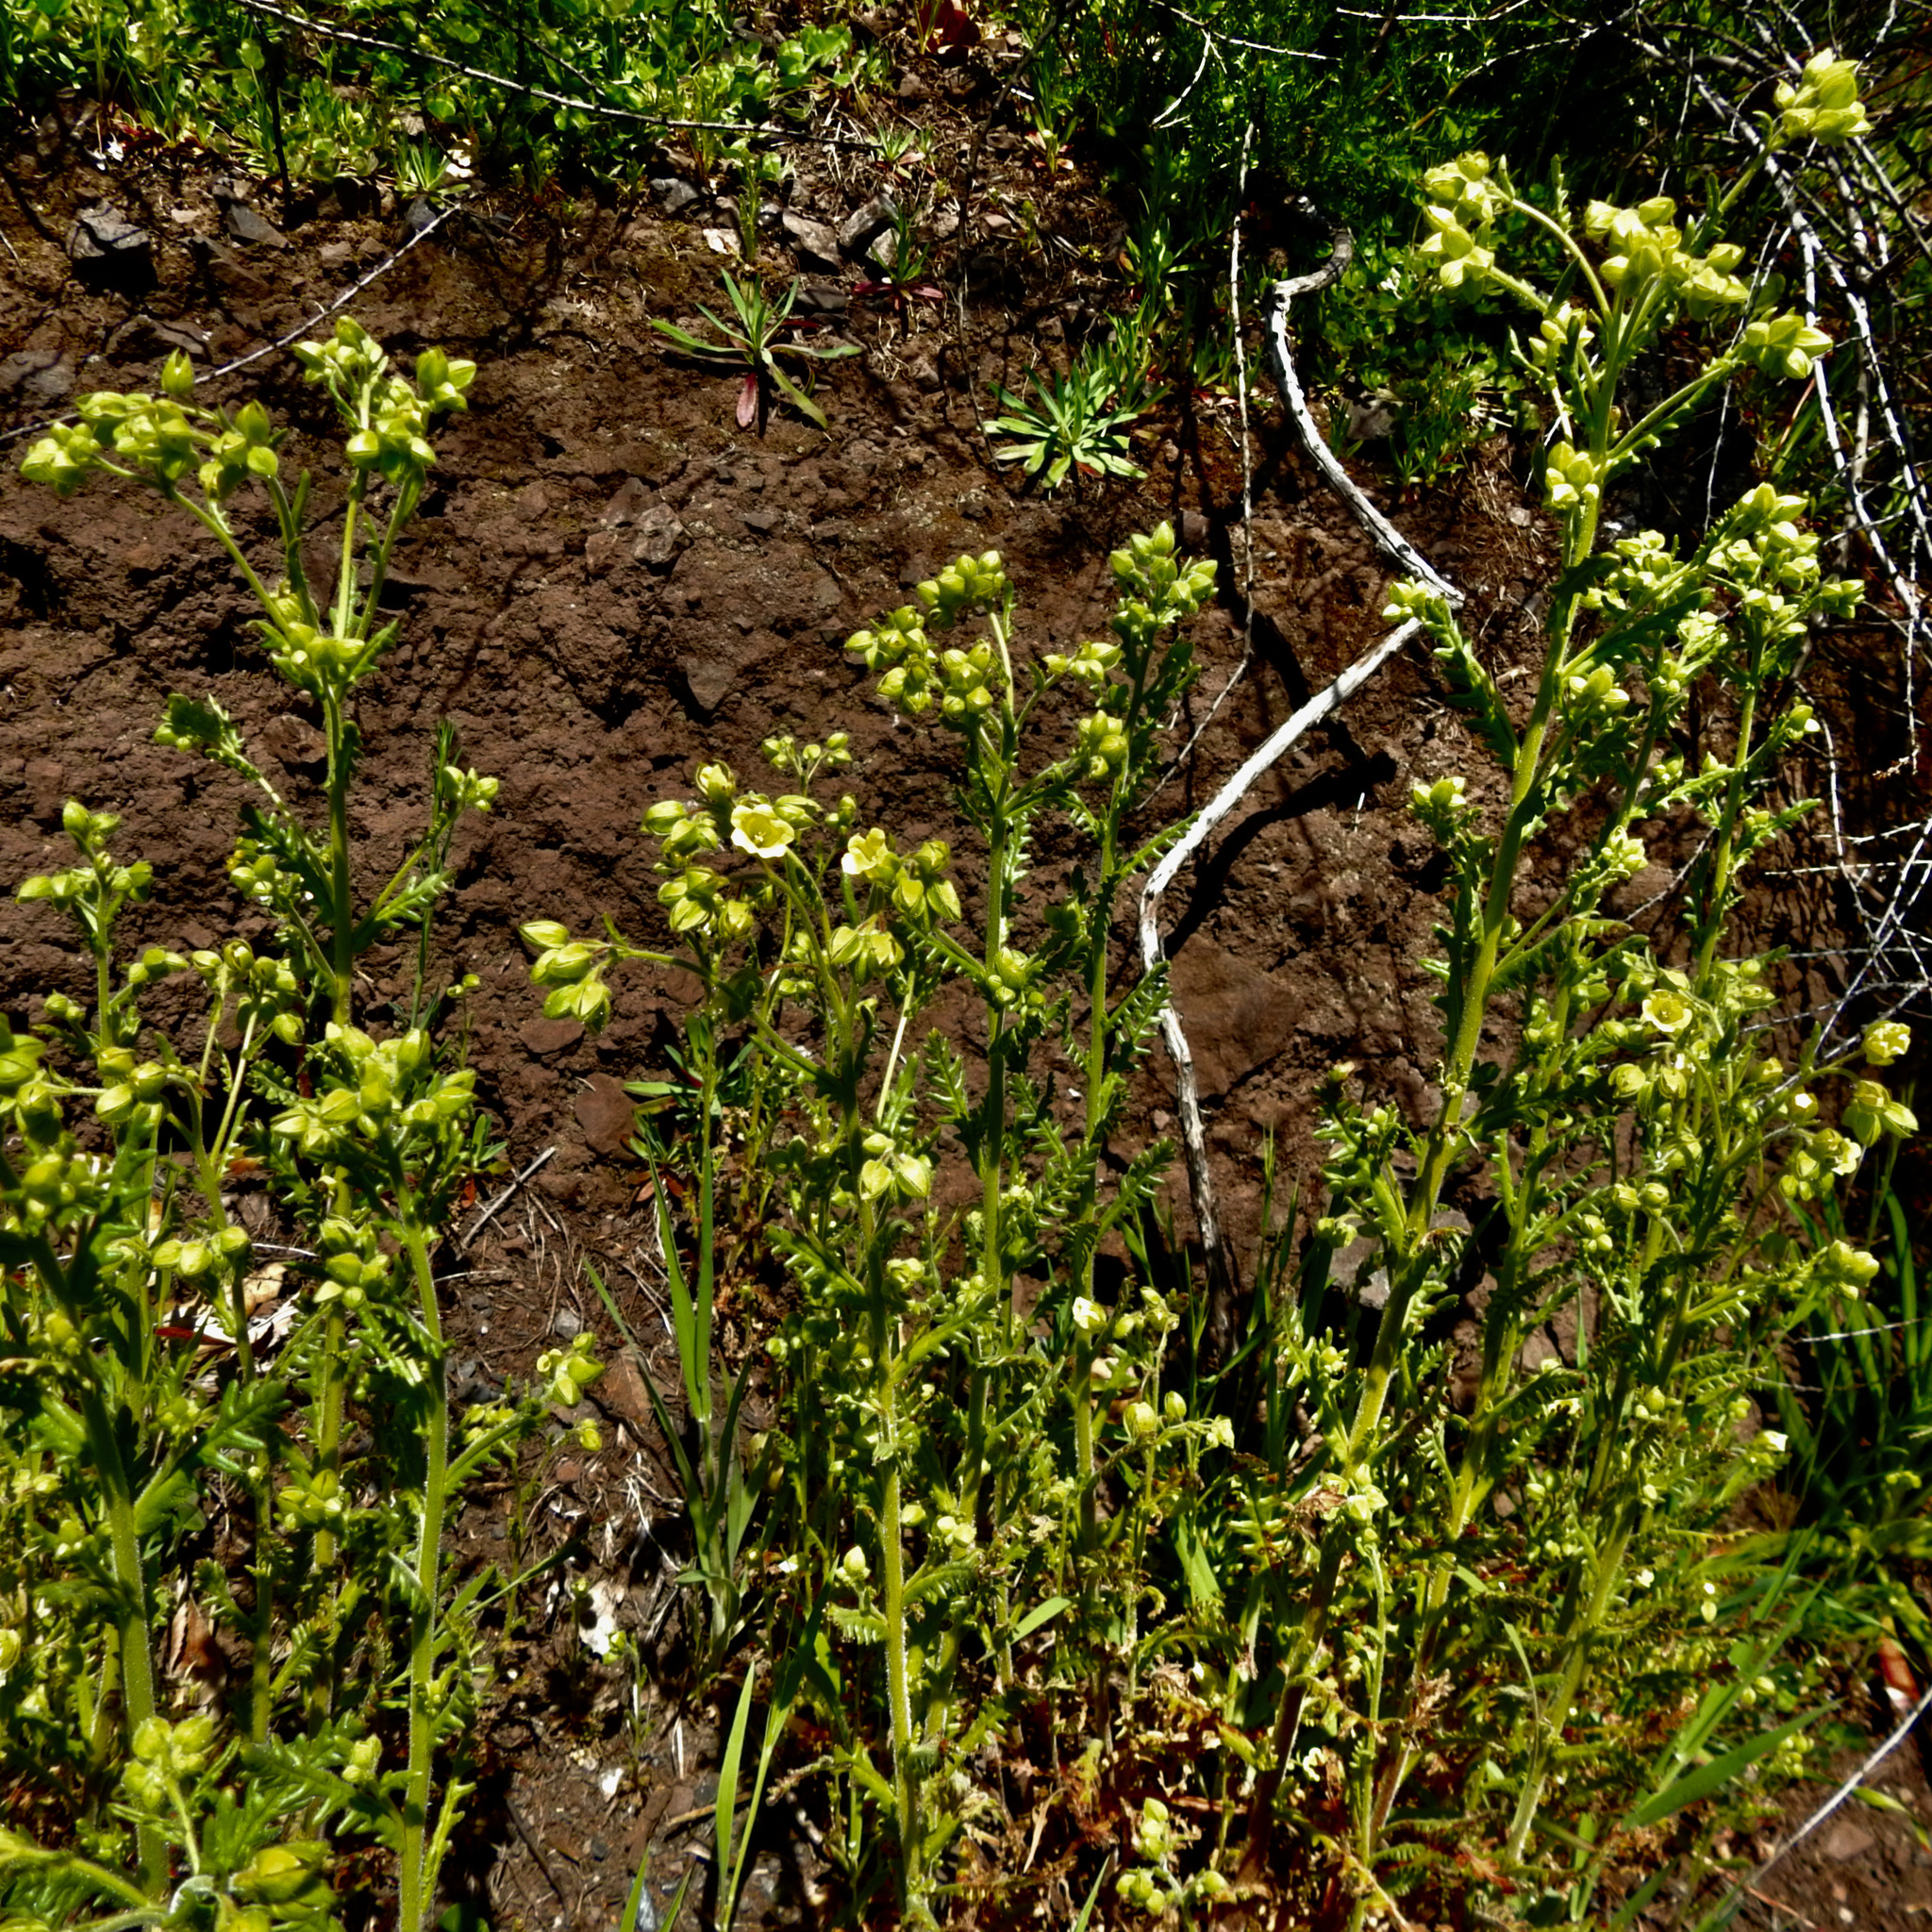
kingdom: Plantae
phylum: Tracheophyta
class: Magnoliopsida
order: Boraginales
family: Hydrophyllaceae
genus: Emmenanthe
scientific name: Emmenanthe penduliflora
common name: Whispering-bells
